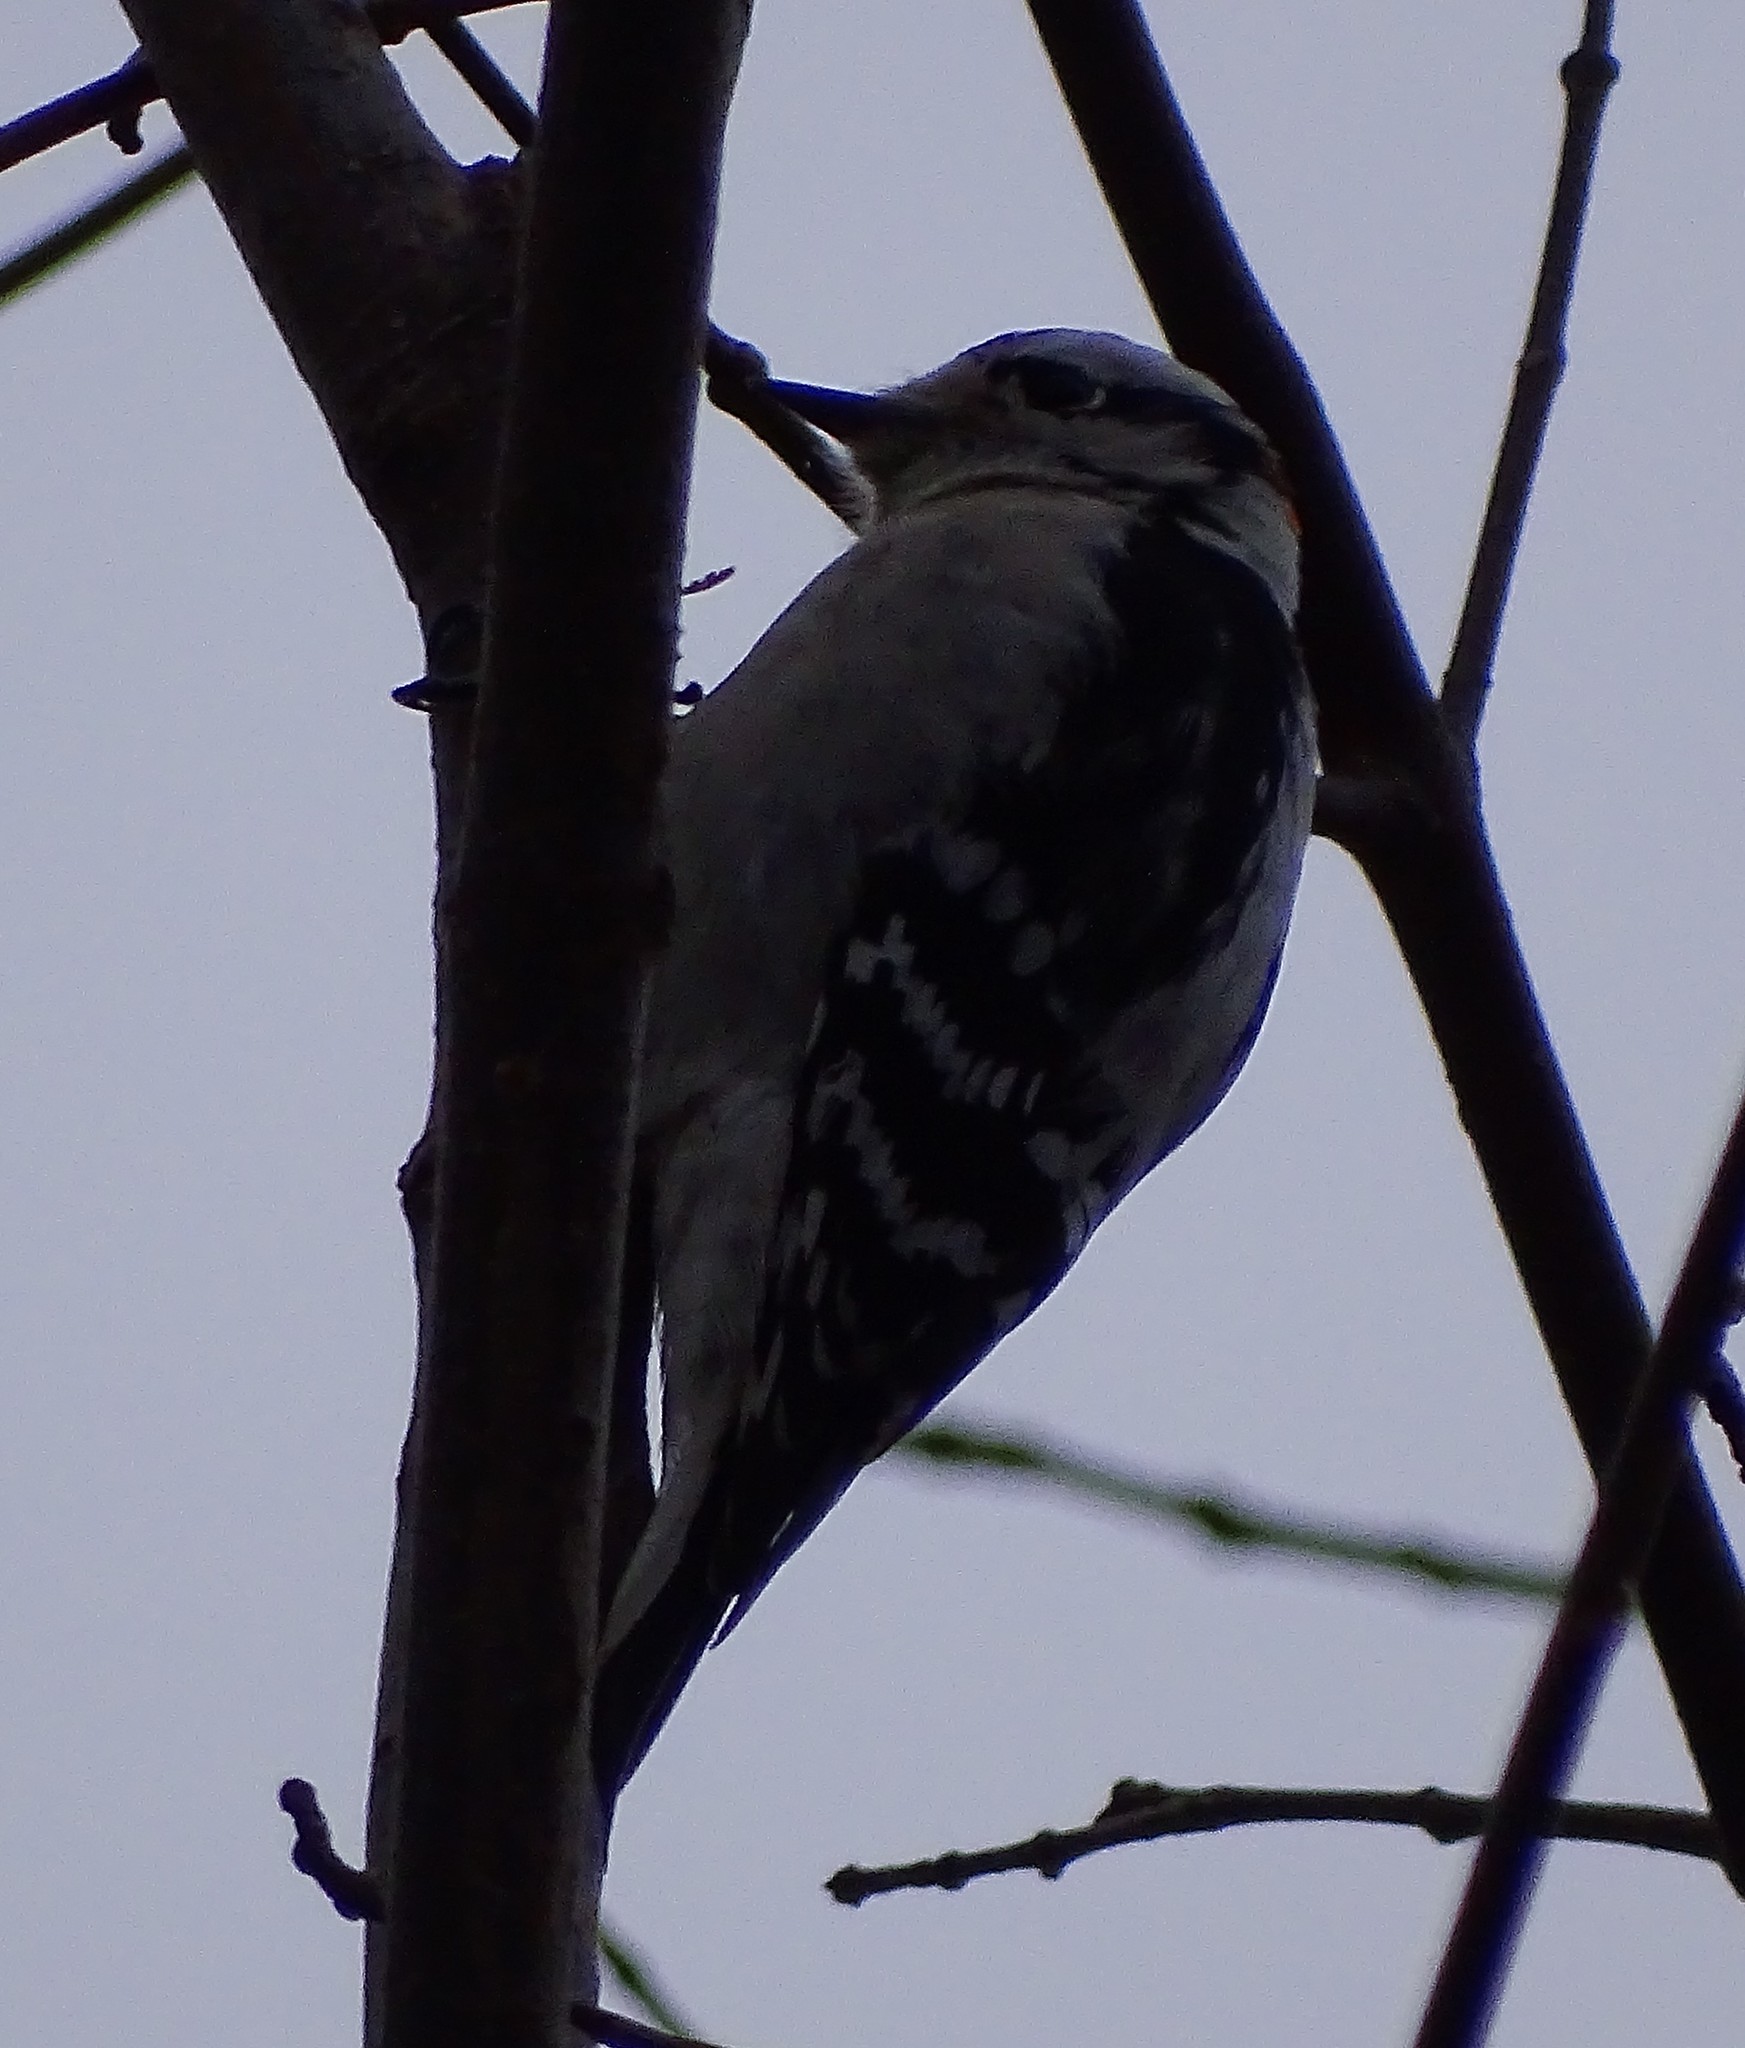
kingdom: Animalia
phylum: Chordata
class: Aves
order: Piciformes
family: Picidae
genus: Dryobates
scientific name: Dryobates pubescens
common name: Downy woodpecker
